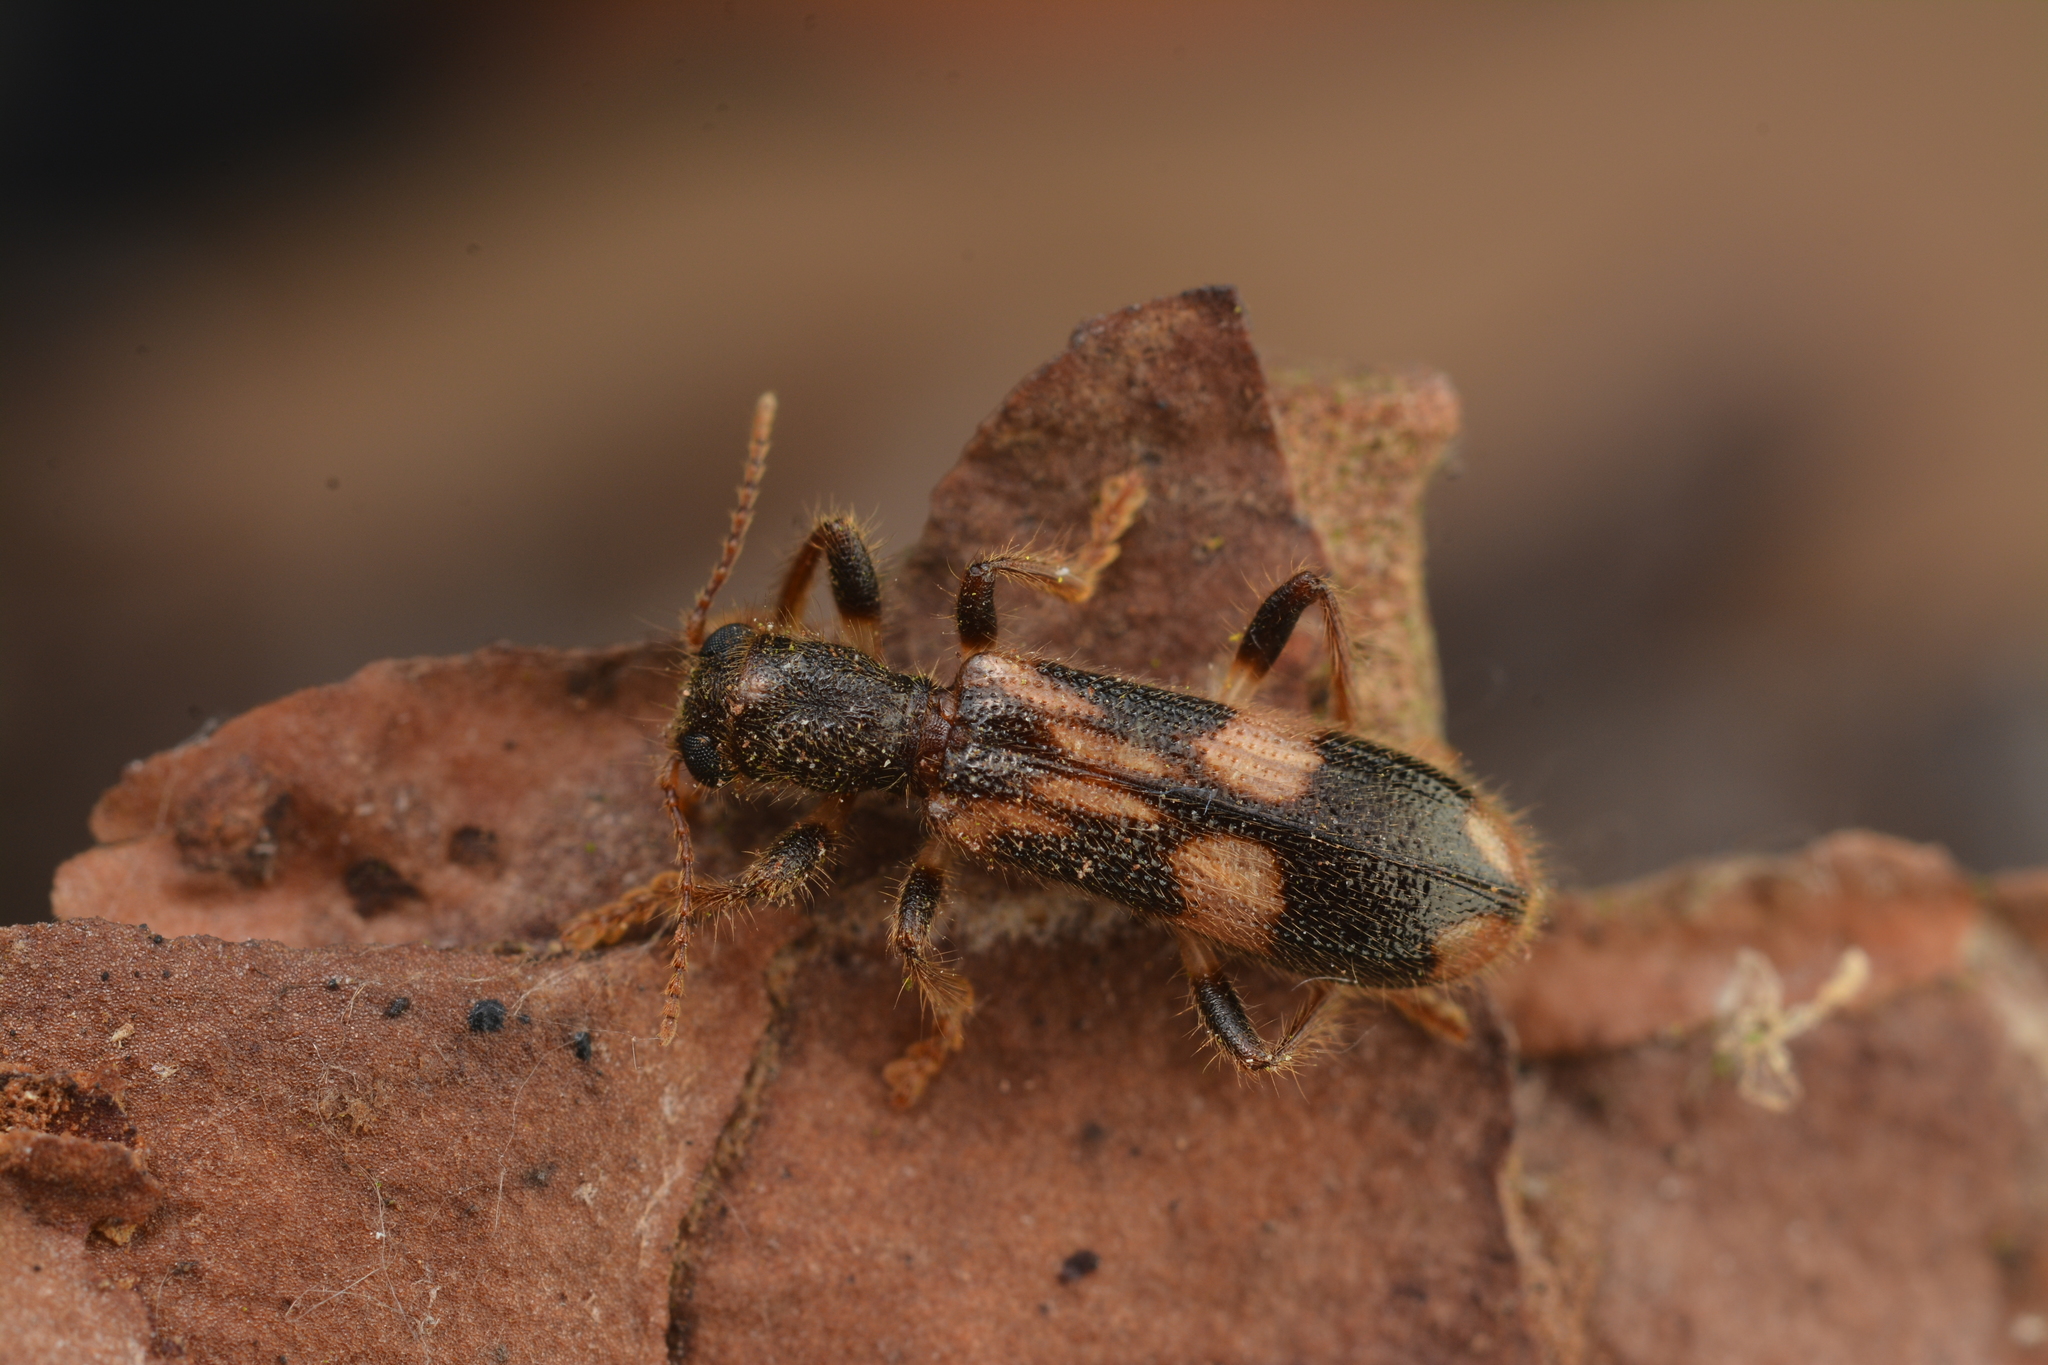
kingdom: Animalia
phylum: Arthropoda
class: Insecta
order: Coleoptera
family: Cleridae
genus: Opilo
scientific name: Opilo mollis
